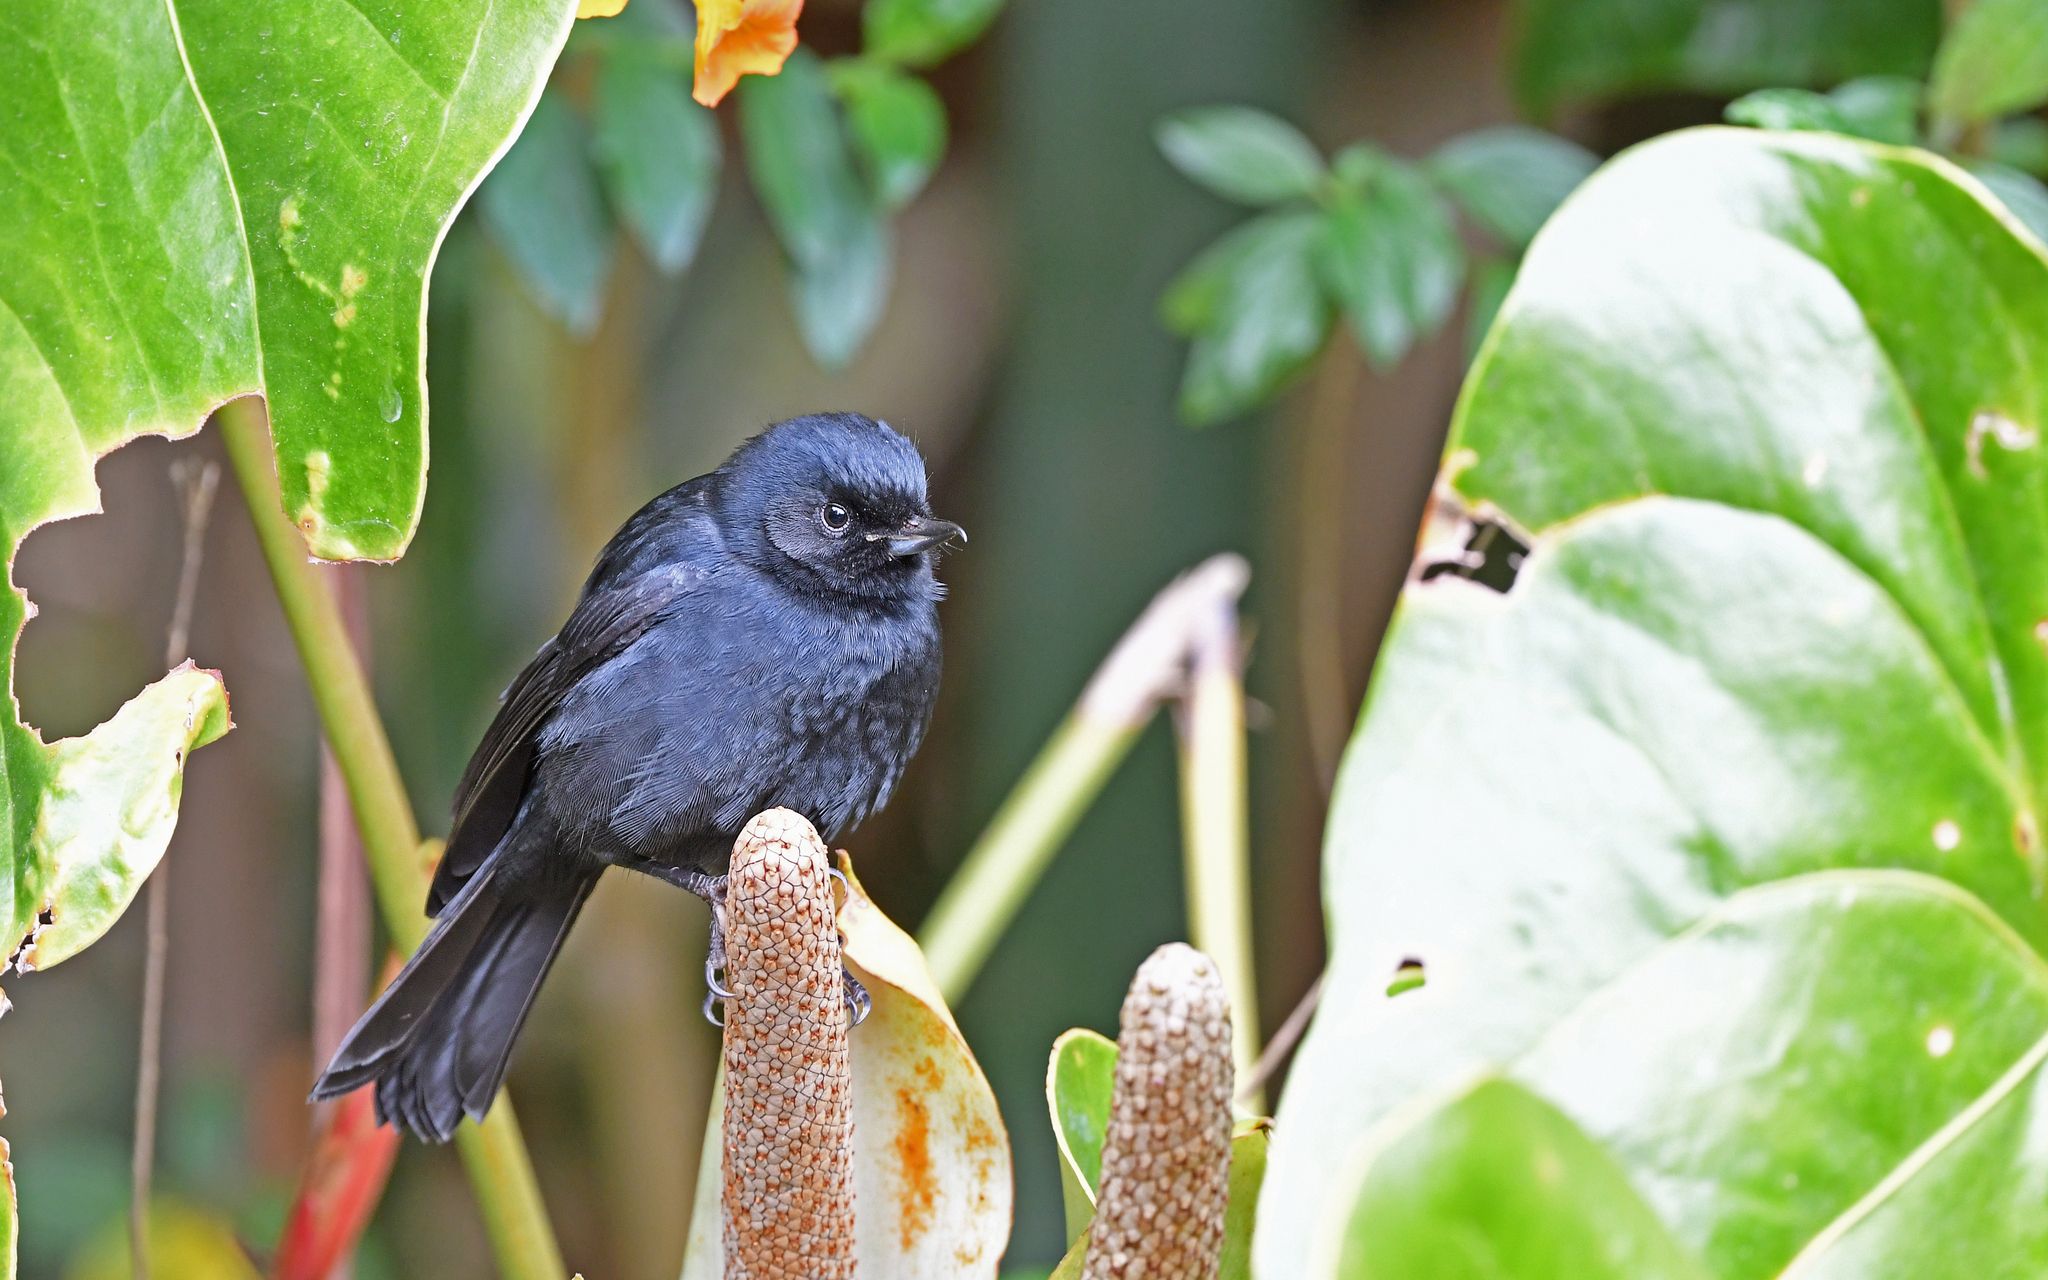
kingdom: Animalia
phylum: Chordata
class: Aves
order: Passeriformes
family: Thraupidae
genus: Diglossa
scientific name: Diglossa humeralis
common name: Black flowerpiercer
